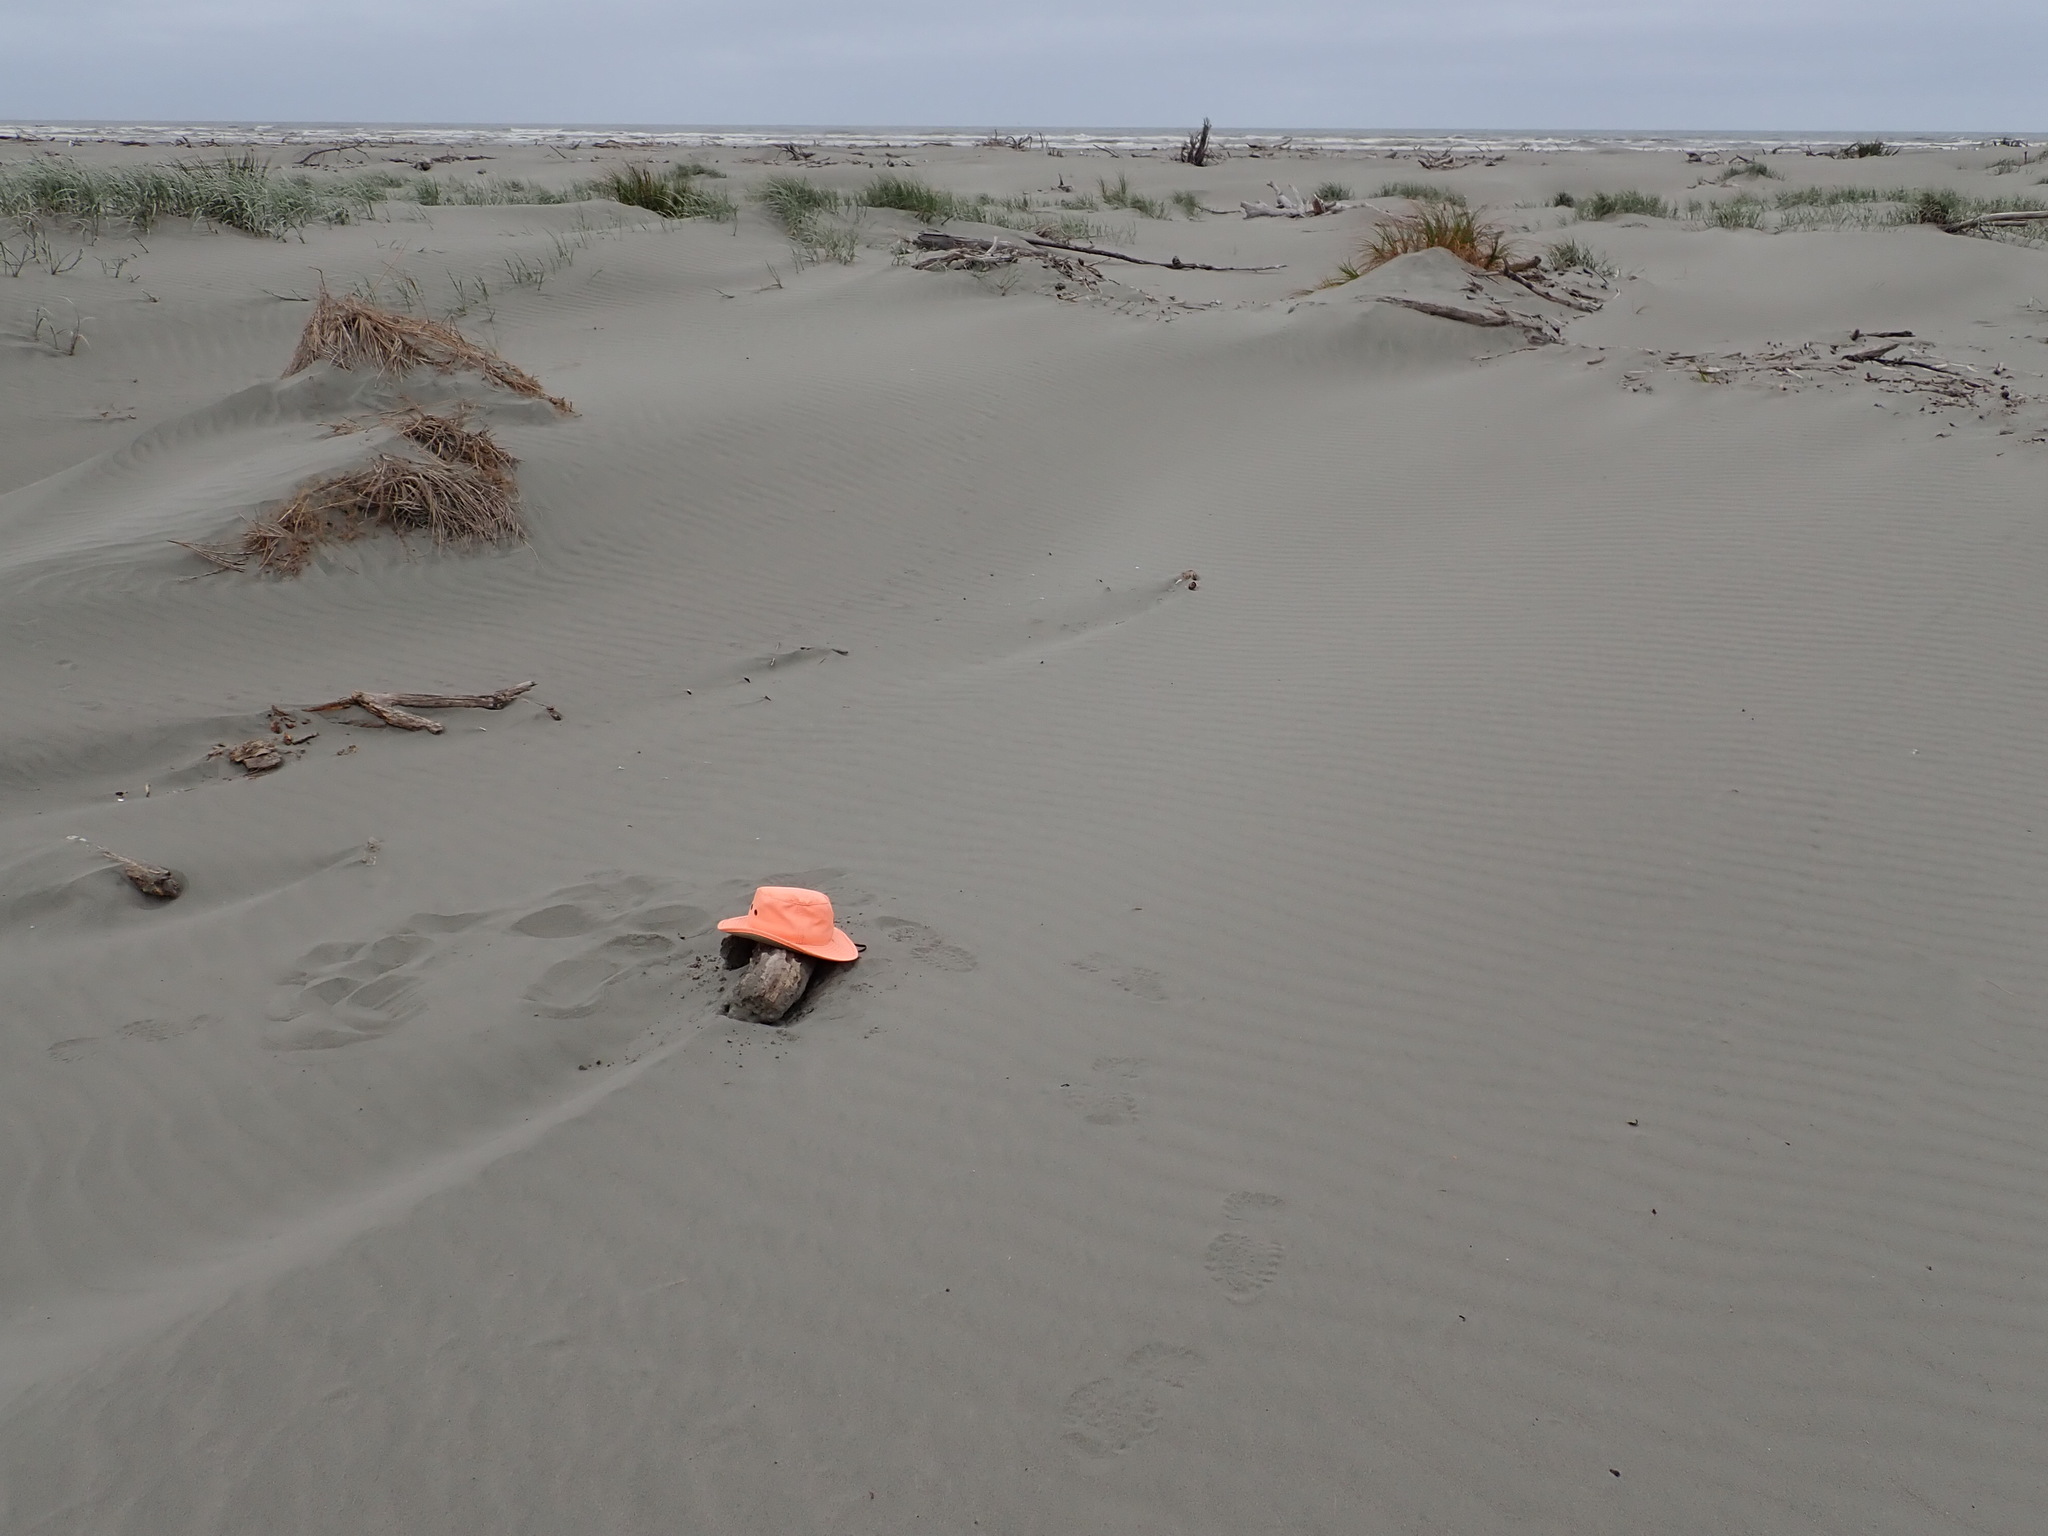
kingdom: Animalia
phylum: Arthropoda
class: Insecta
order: Coleoptera
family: Scarabaeidae
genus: Pericoptus
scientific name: Pericoptus truncatus
